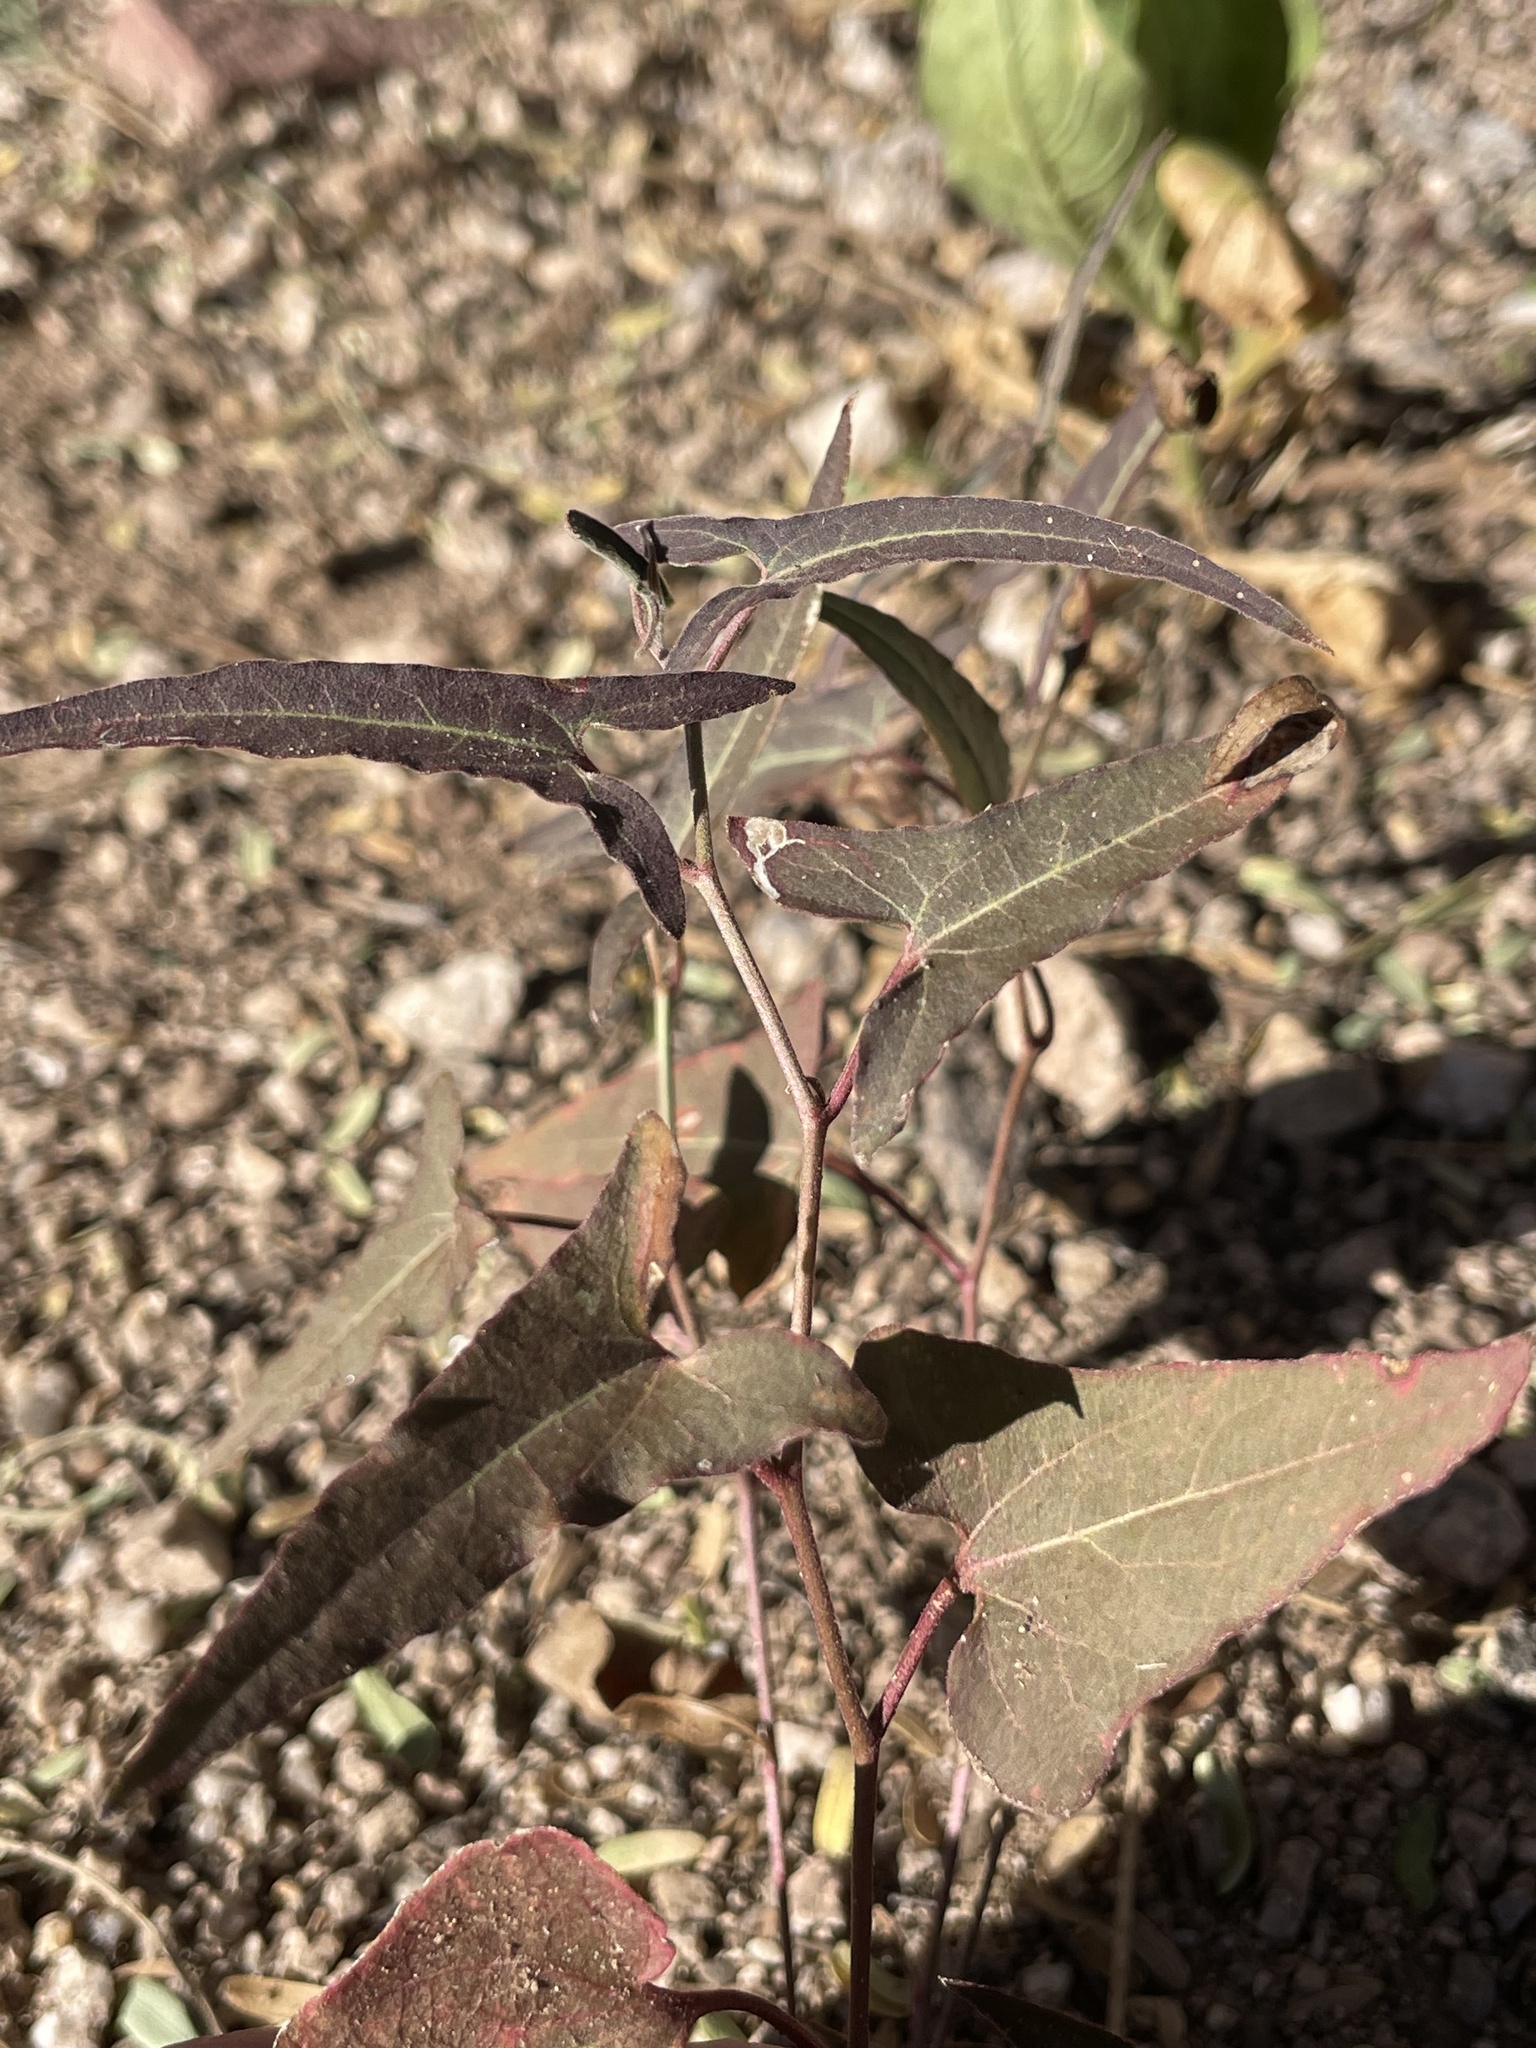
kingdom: Plantae
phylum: Tracheophyta
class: Magnoliopsida
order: Piperales
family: Aristolochiaceae
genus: Aristolochia
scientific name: Aristolochia watsonii
